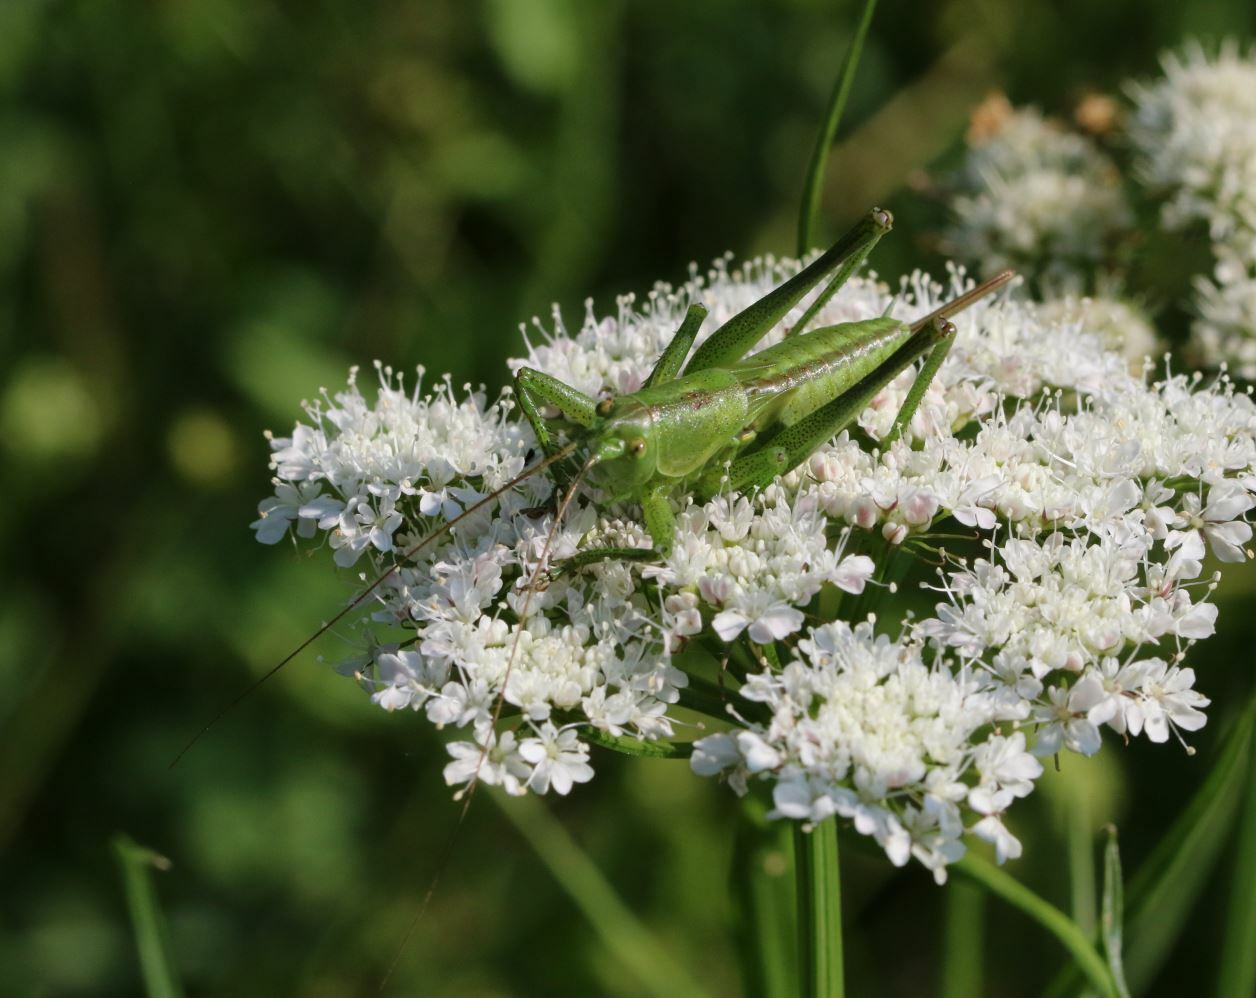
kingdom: Animalia
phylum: Arthropoda
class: Insecta
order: Orthoptera
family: Tettigoniidae
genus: Tettigonia
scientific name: Tettigonia viridissima
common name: Great green bush-cricket
